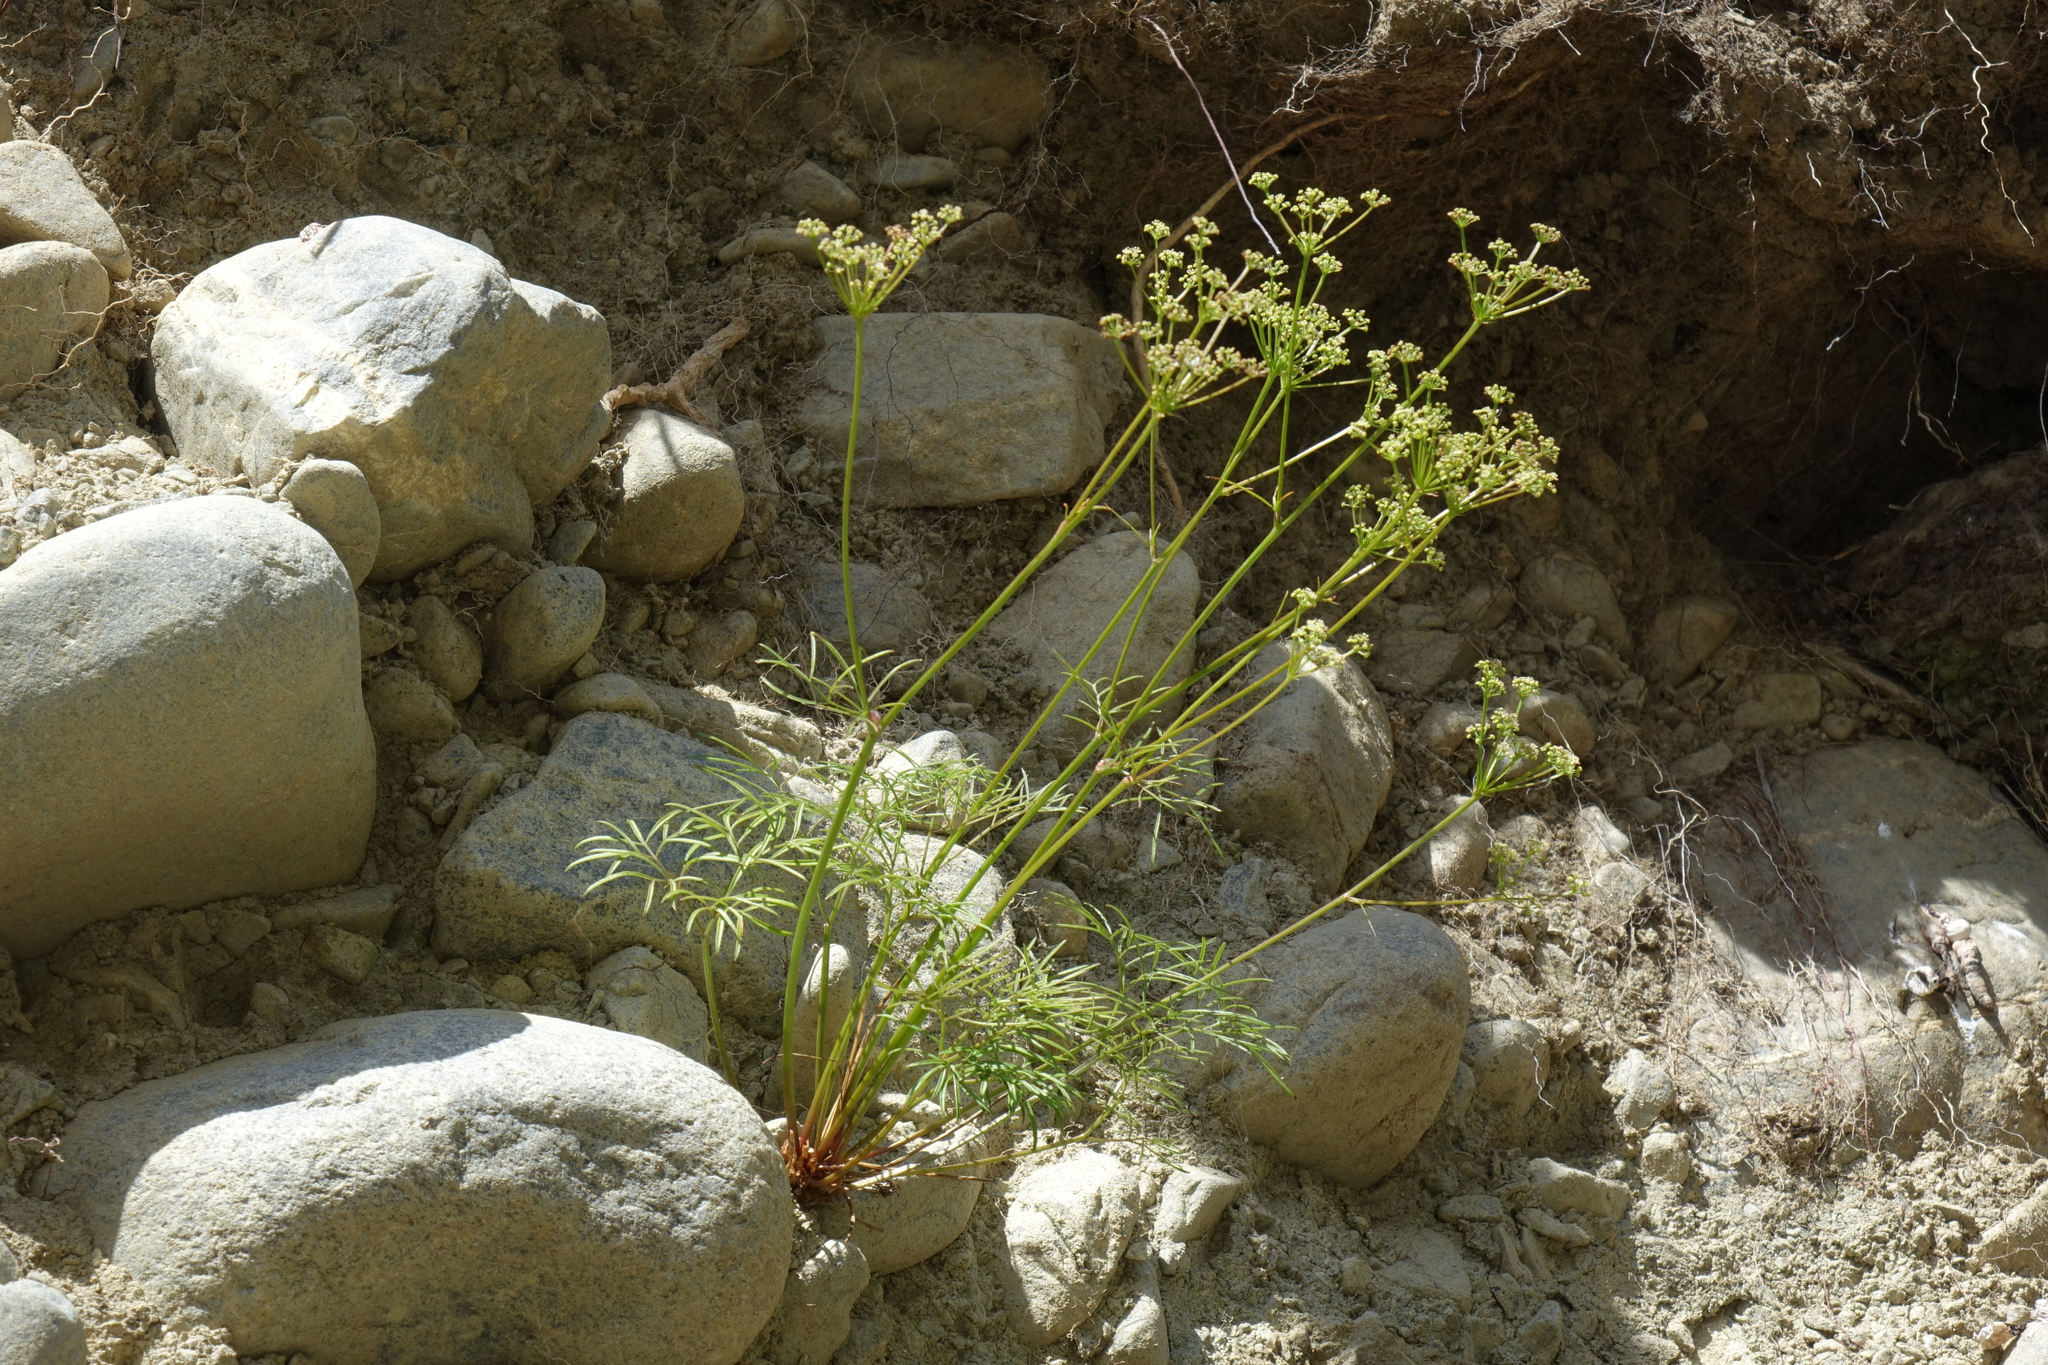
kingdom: Plantae
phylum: Tracheophyta
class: Magnoliopsida
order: Apiales
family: Apiaceae
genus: Anisotome
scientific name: Anisotome filifolia
